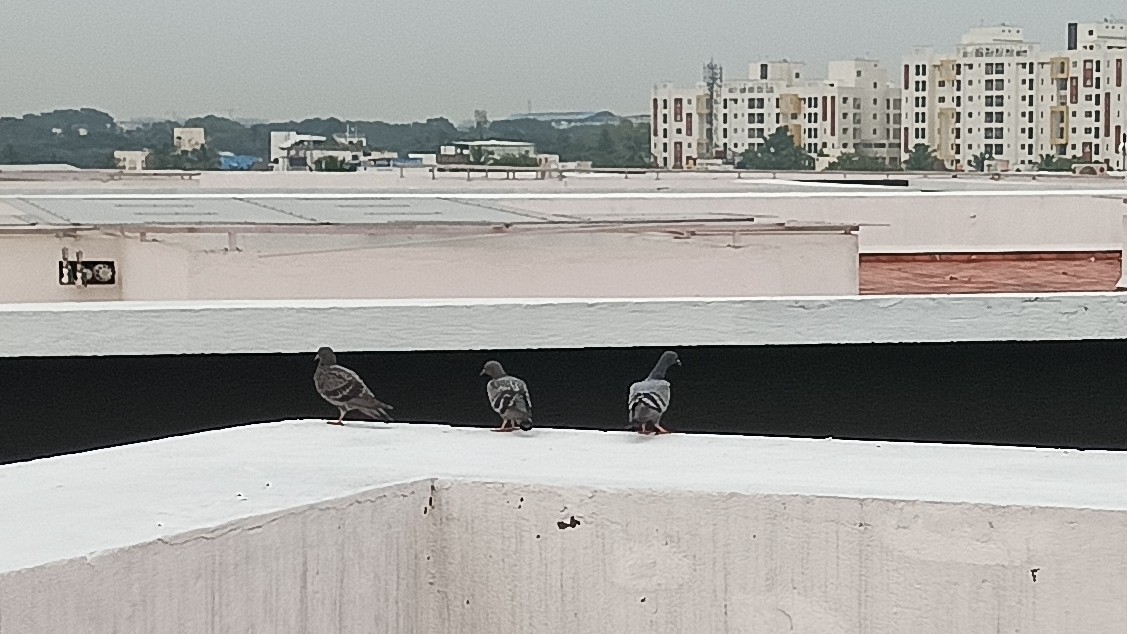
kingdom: Animalia
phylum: Chordata
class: Aves
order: Columbiformes
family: Columbidae
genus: Columba
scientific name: Columba livia
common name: Rock pigeon
